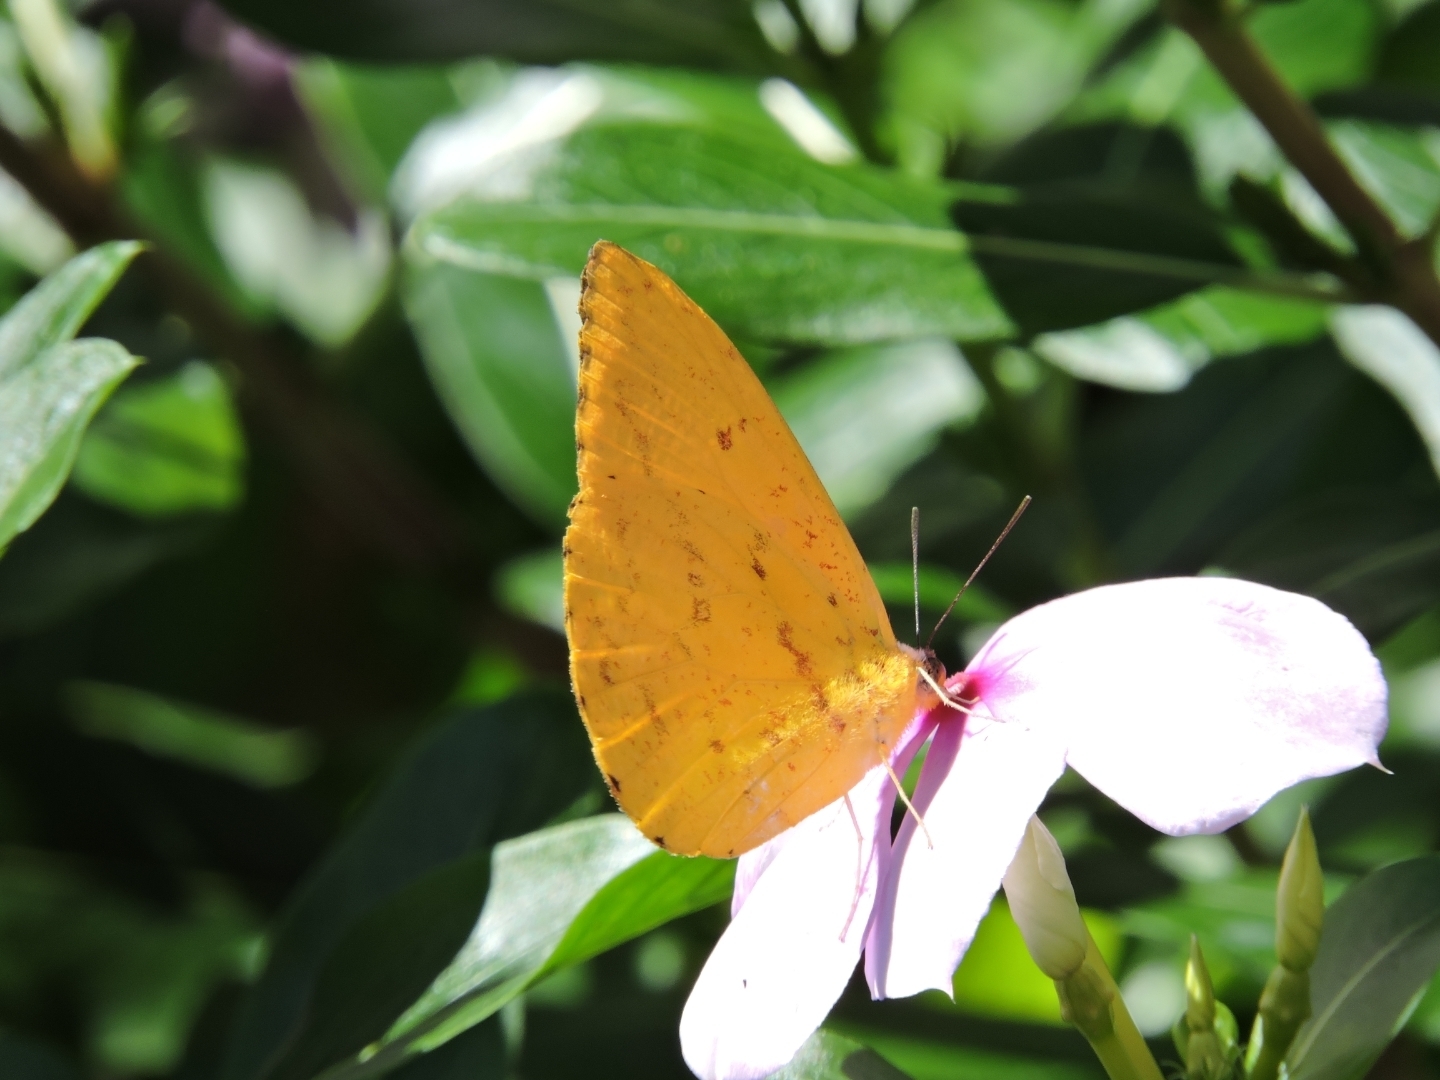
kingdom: Animalia
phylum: Arthropoda
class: Insecta
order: Lepidoptera
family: Pieridae
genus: Phoebis
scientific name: Phoebis argante
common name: Apricot sulphur
